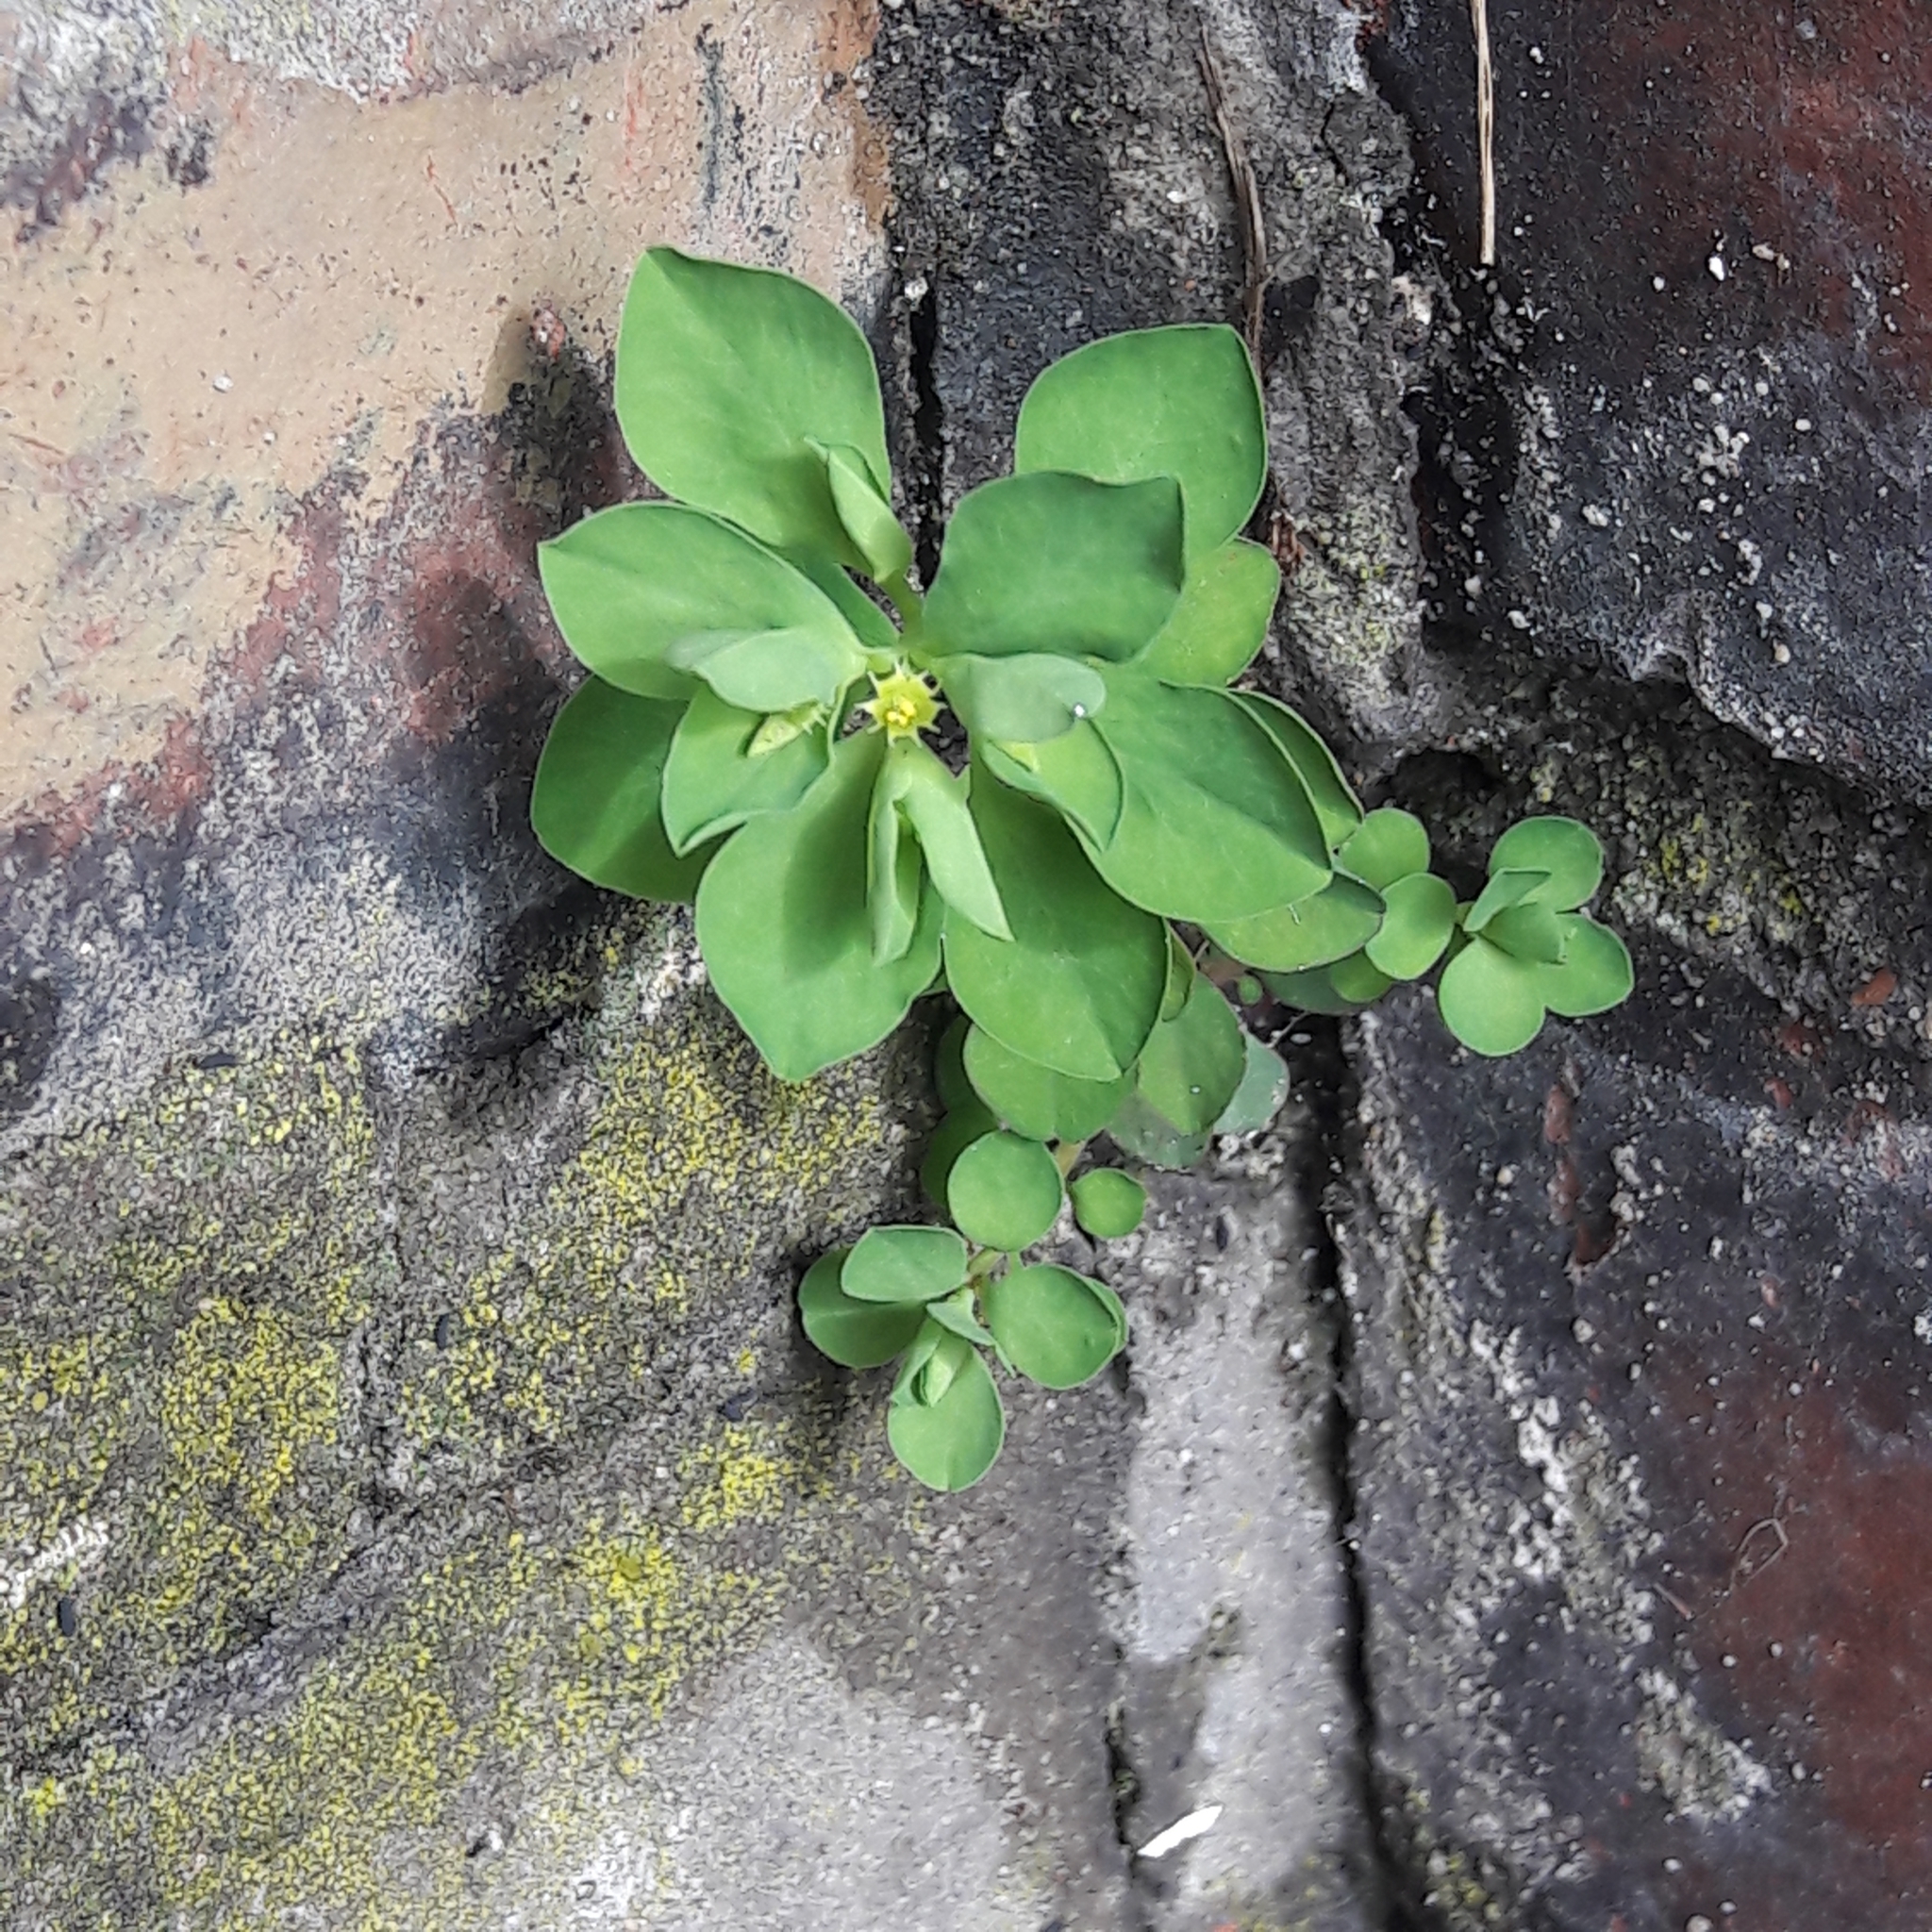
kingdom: Plantae
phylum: Tracheophyta
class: Magnoliopsida
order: Malpighiales
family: Euphorbiaceae
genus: Euphorbia
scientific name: Euphorbia peplus
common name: Petty spurge
